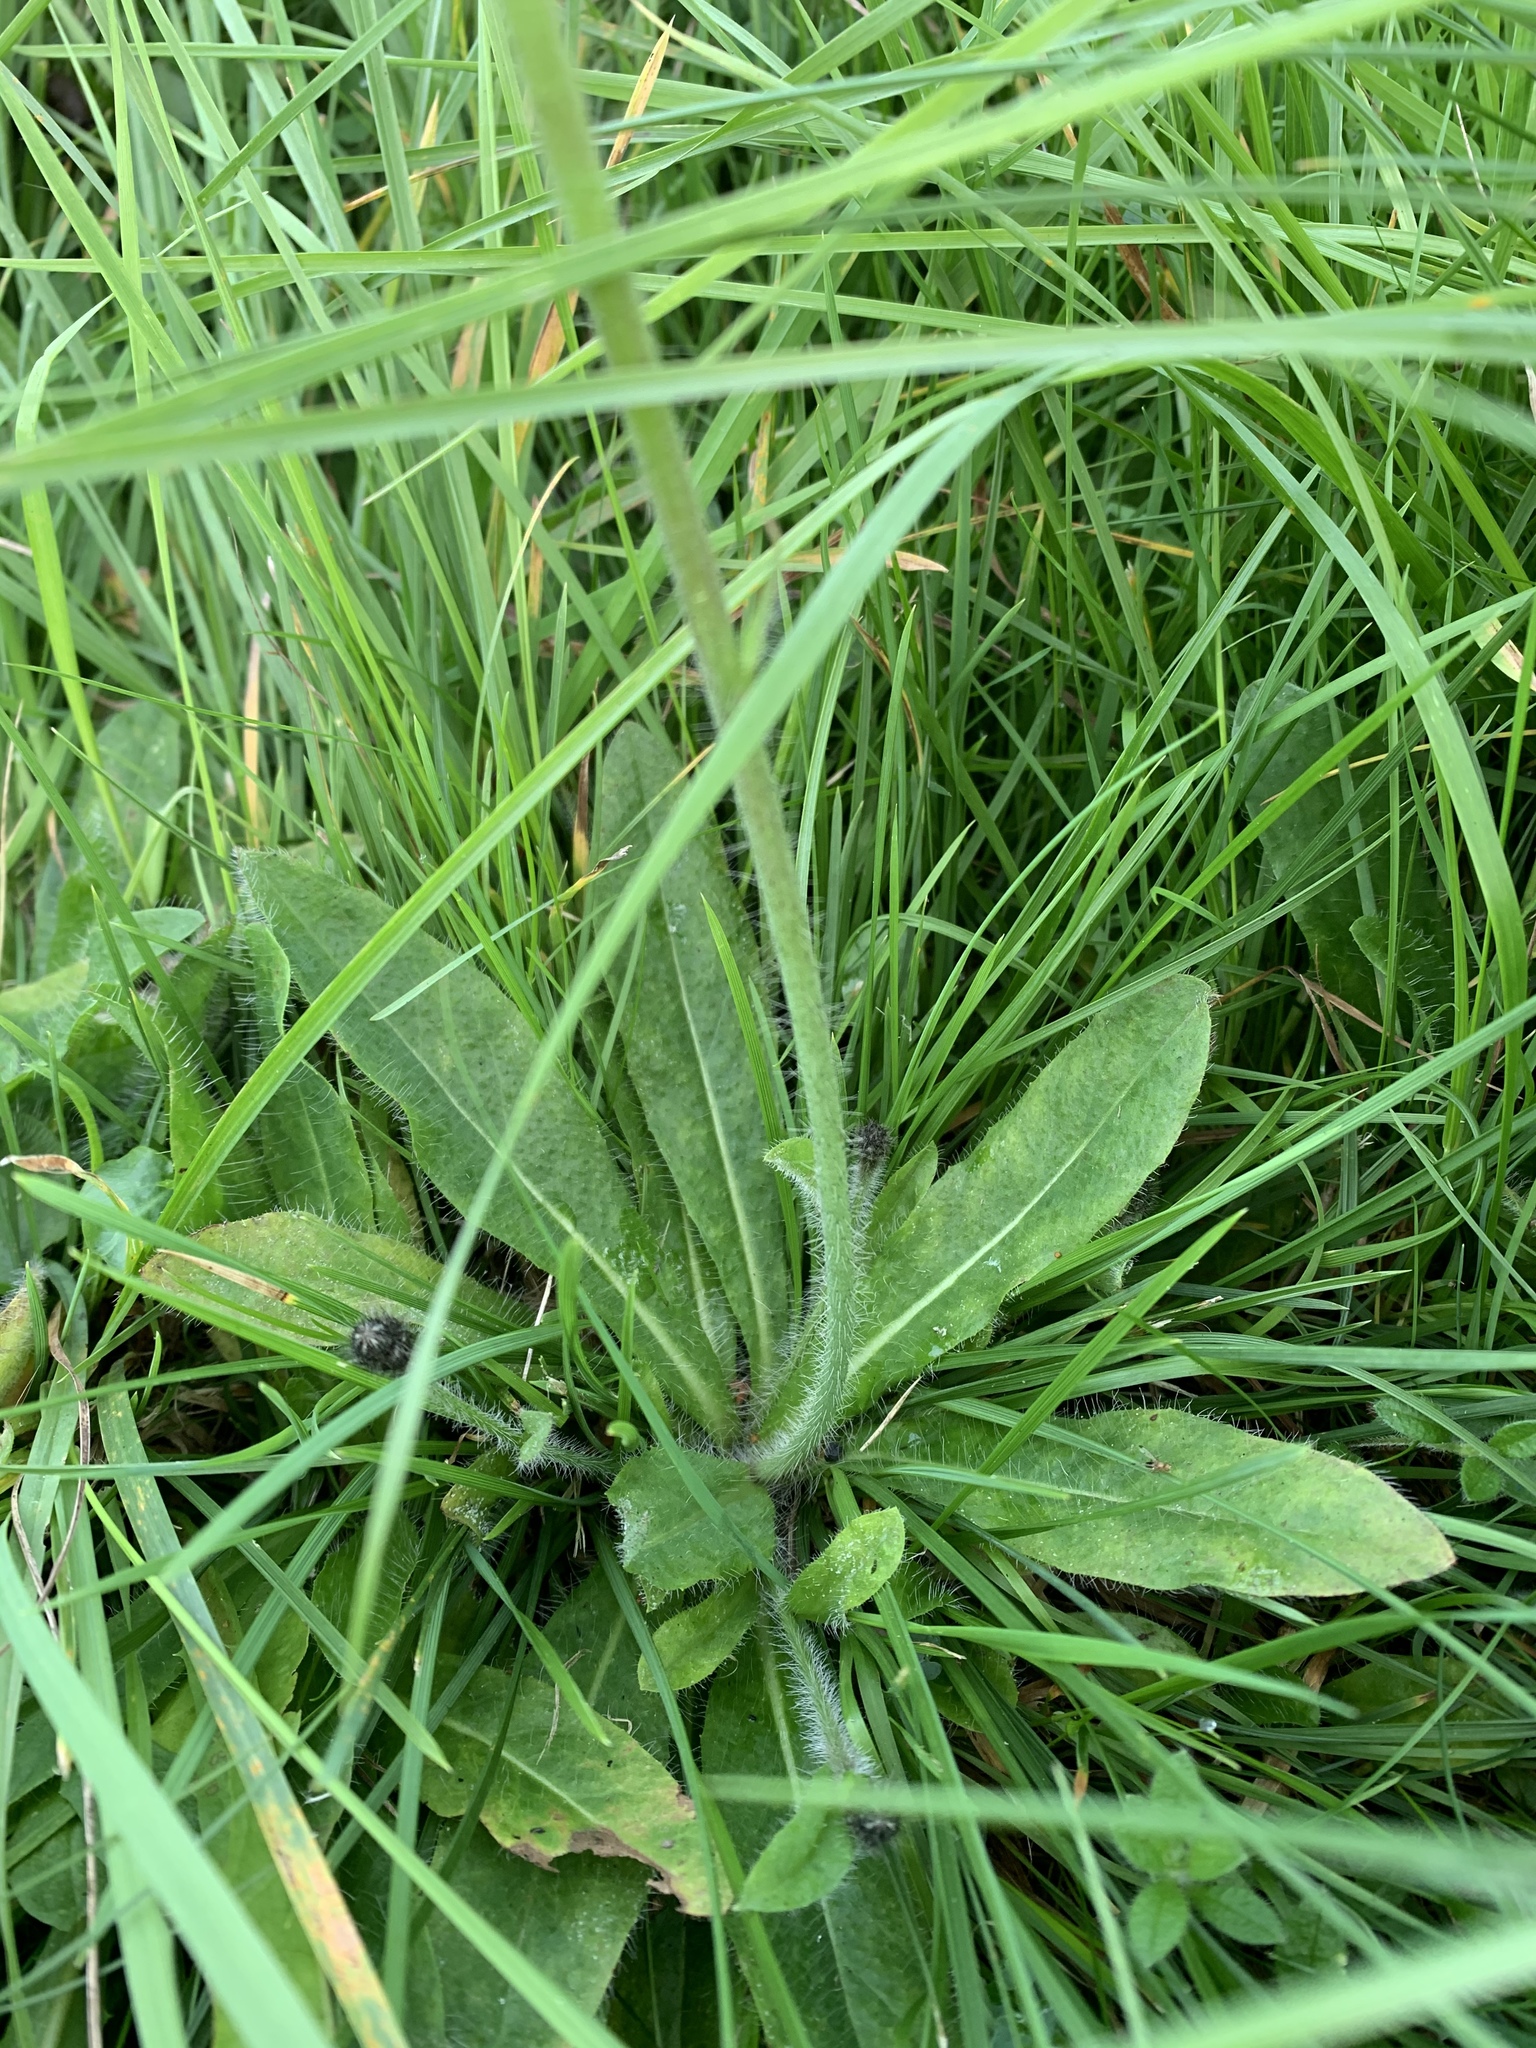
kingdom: Plantae
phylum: Tracheophyta
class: Magnoliopsida
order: Asterales
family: Asteraceae
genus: Pilosella
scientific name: Pilosella aurantiaca
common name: Fox-and-cubs
